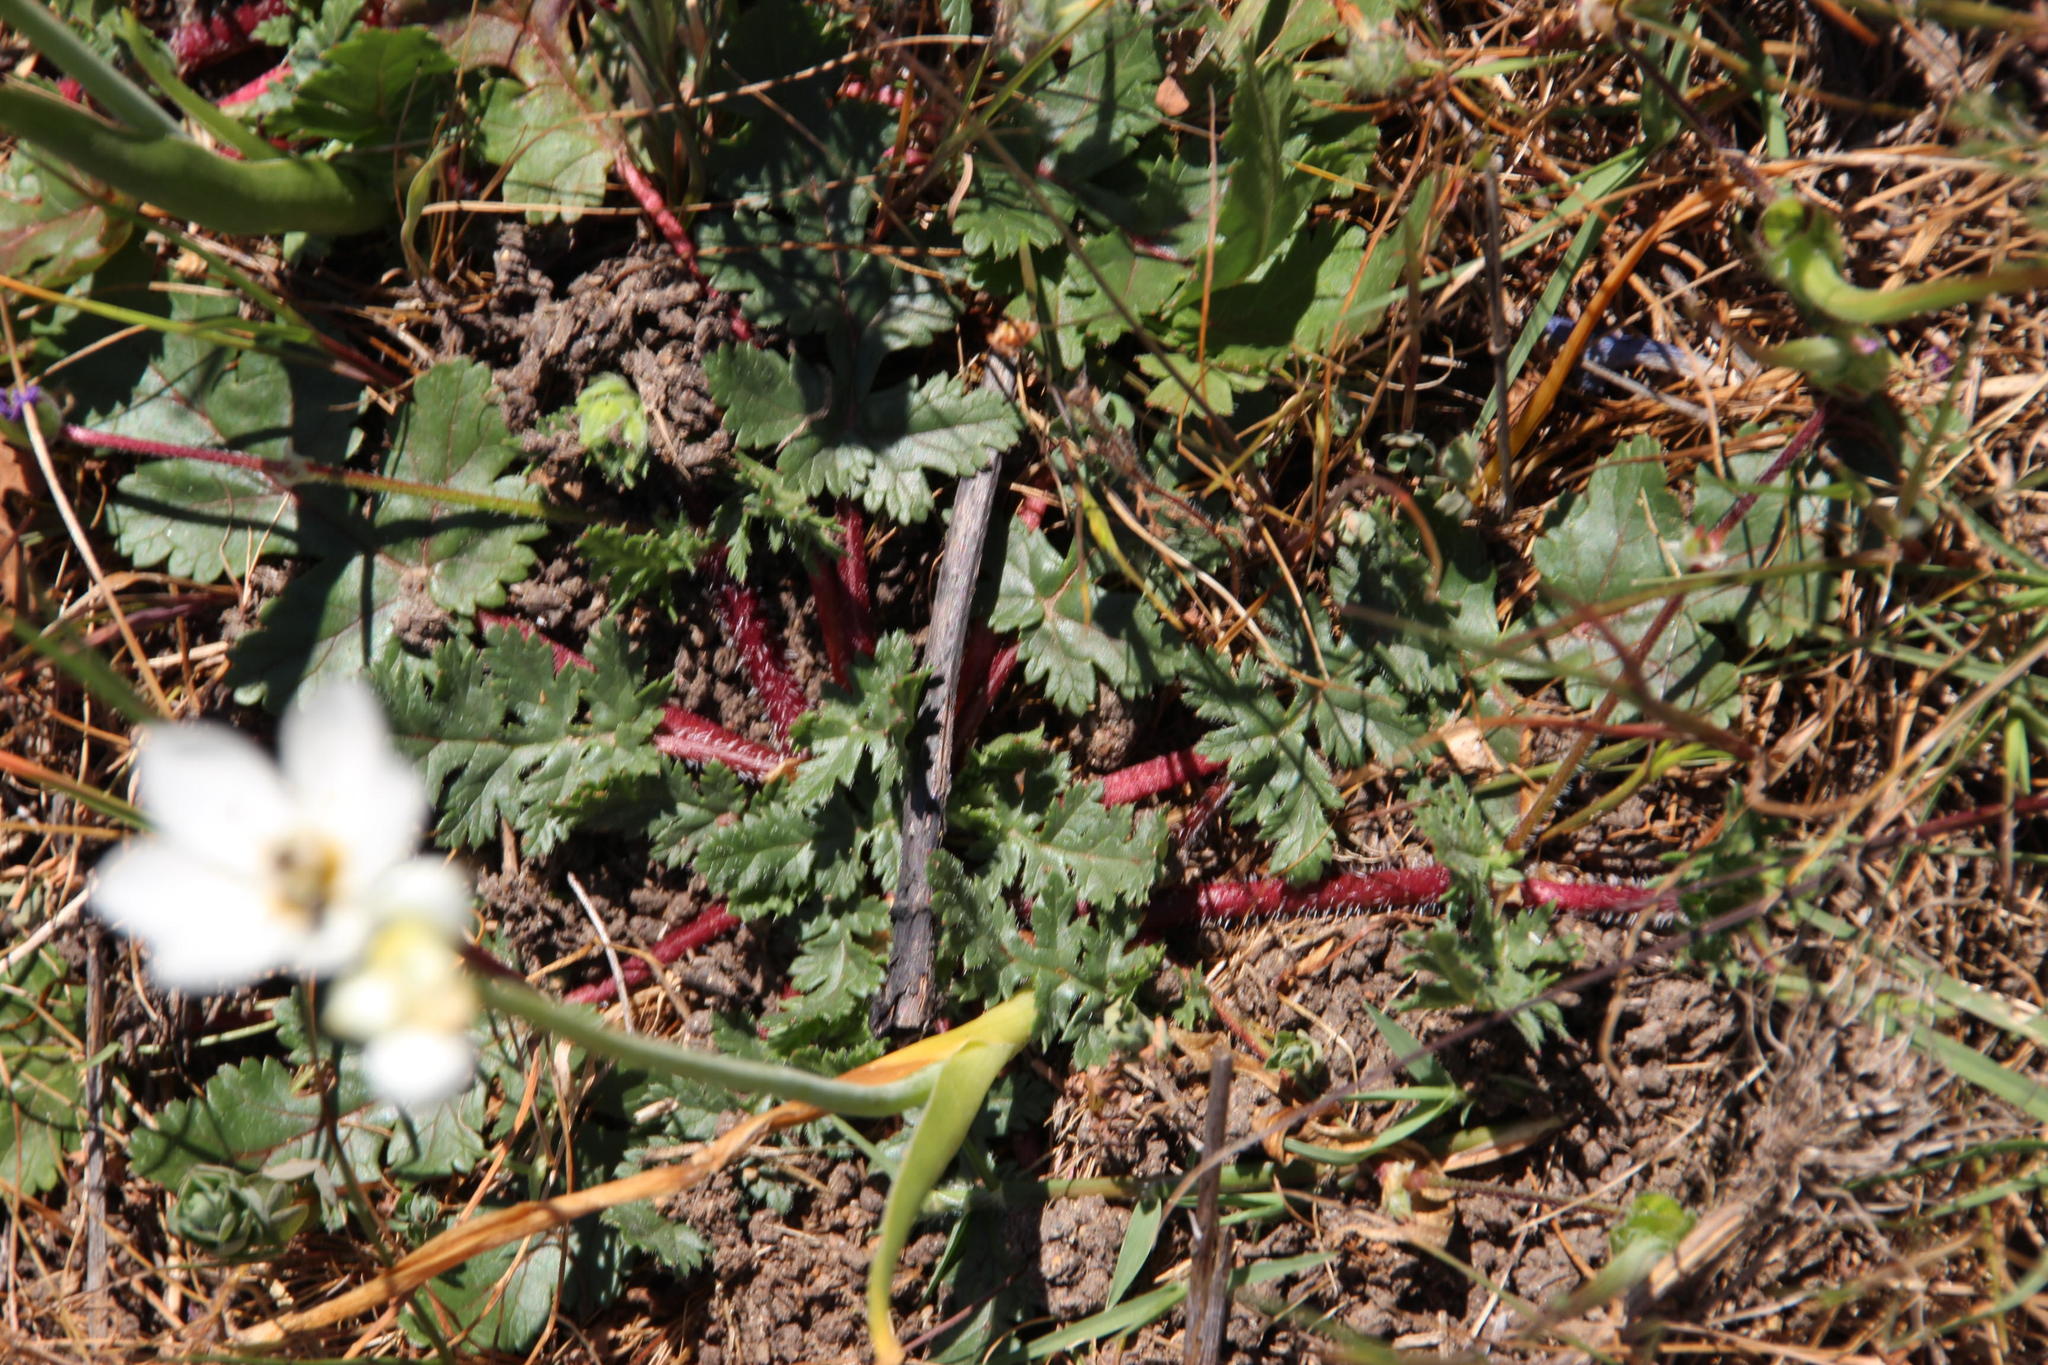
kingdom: Plantae
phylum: Tracheophyta
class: Magnoliopsida
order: Geraniales
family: Geraniaceae
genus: Erodium
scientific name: Erodium botrys
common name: Mediterranean stork's-bill
